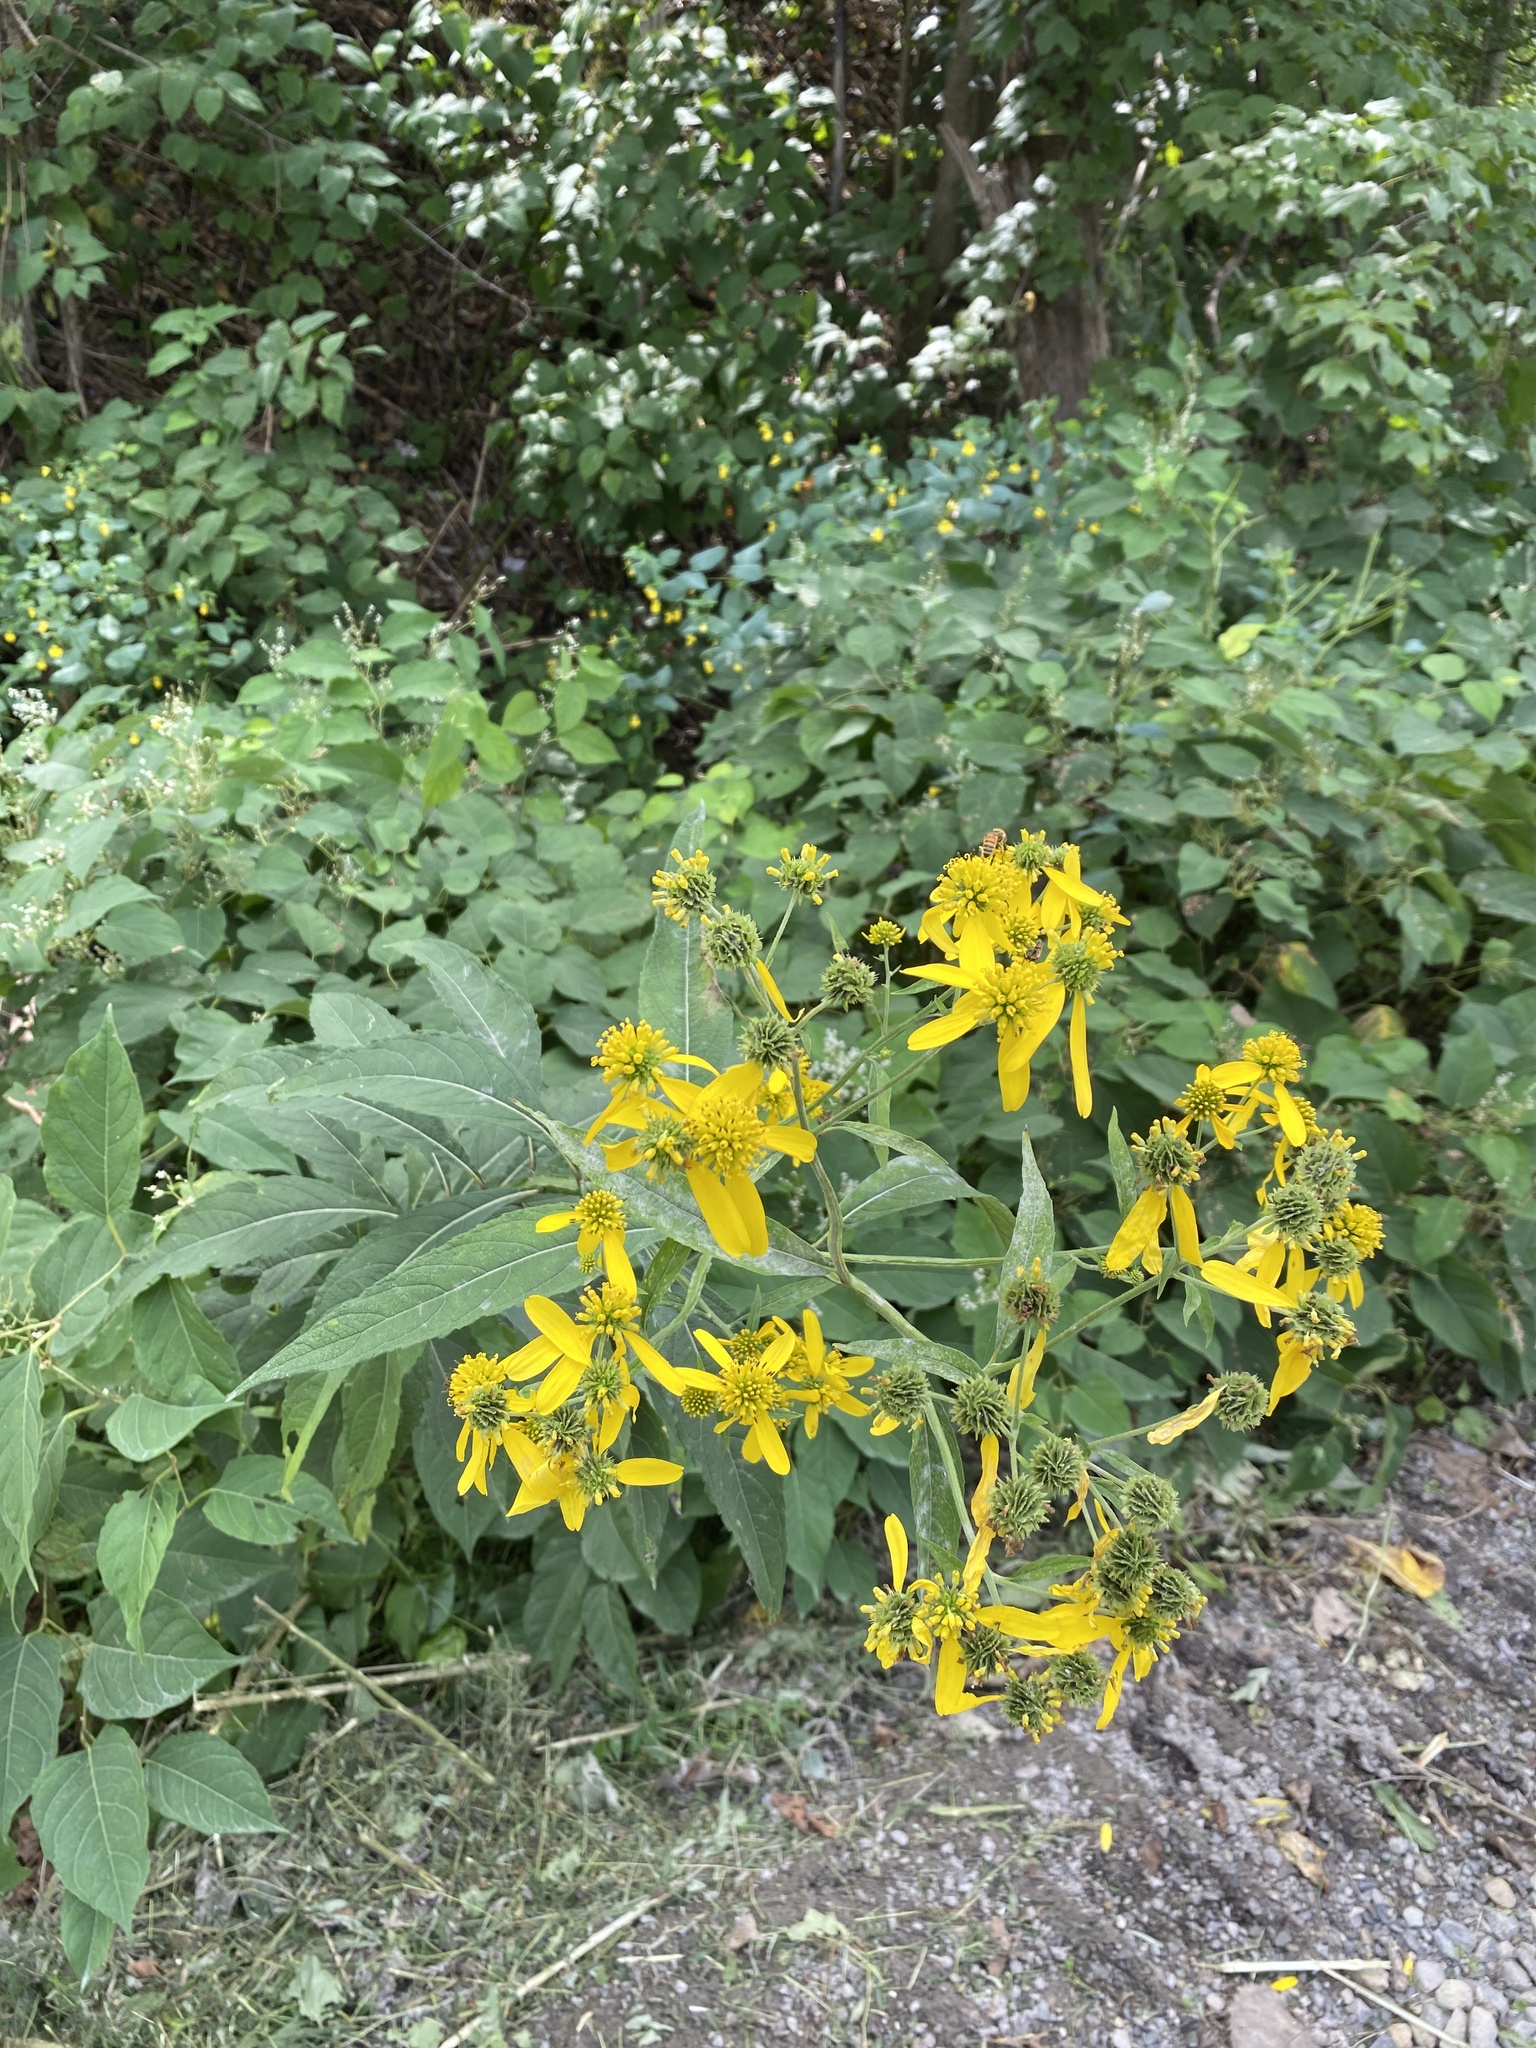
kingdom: Plantae
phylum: Tracheophyta
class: Magnoliopsida
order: Asterales
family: Asteraceae
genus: Verbesina
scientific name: Verbesina alternifolia
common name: Wingstem
